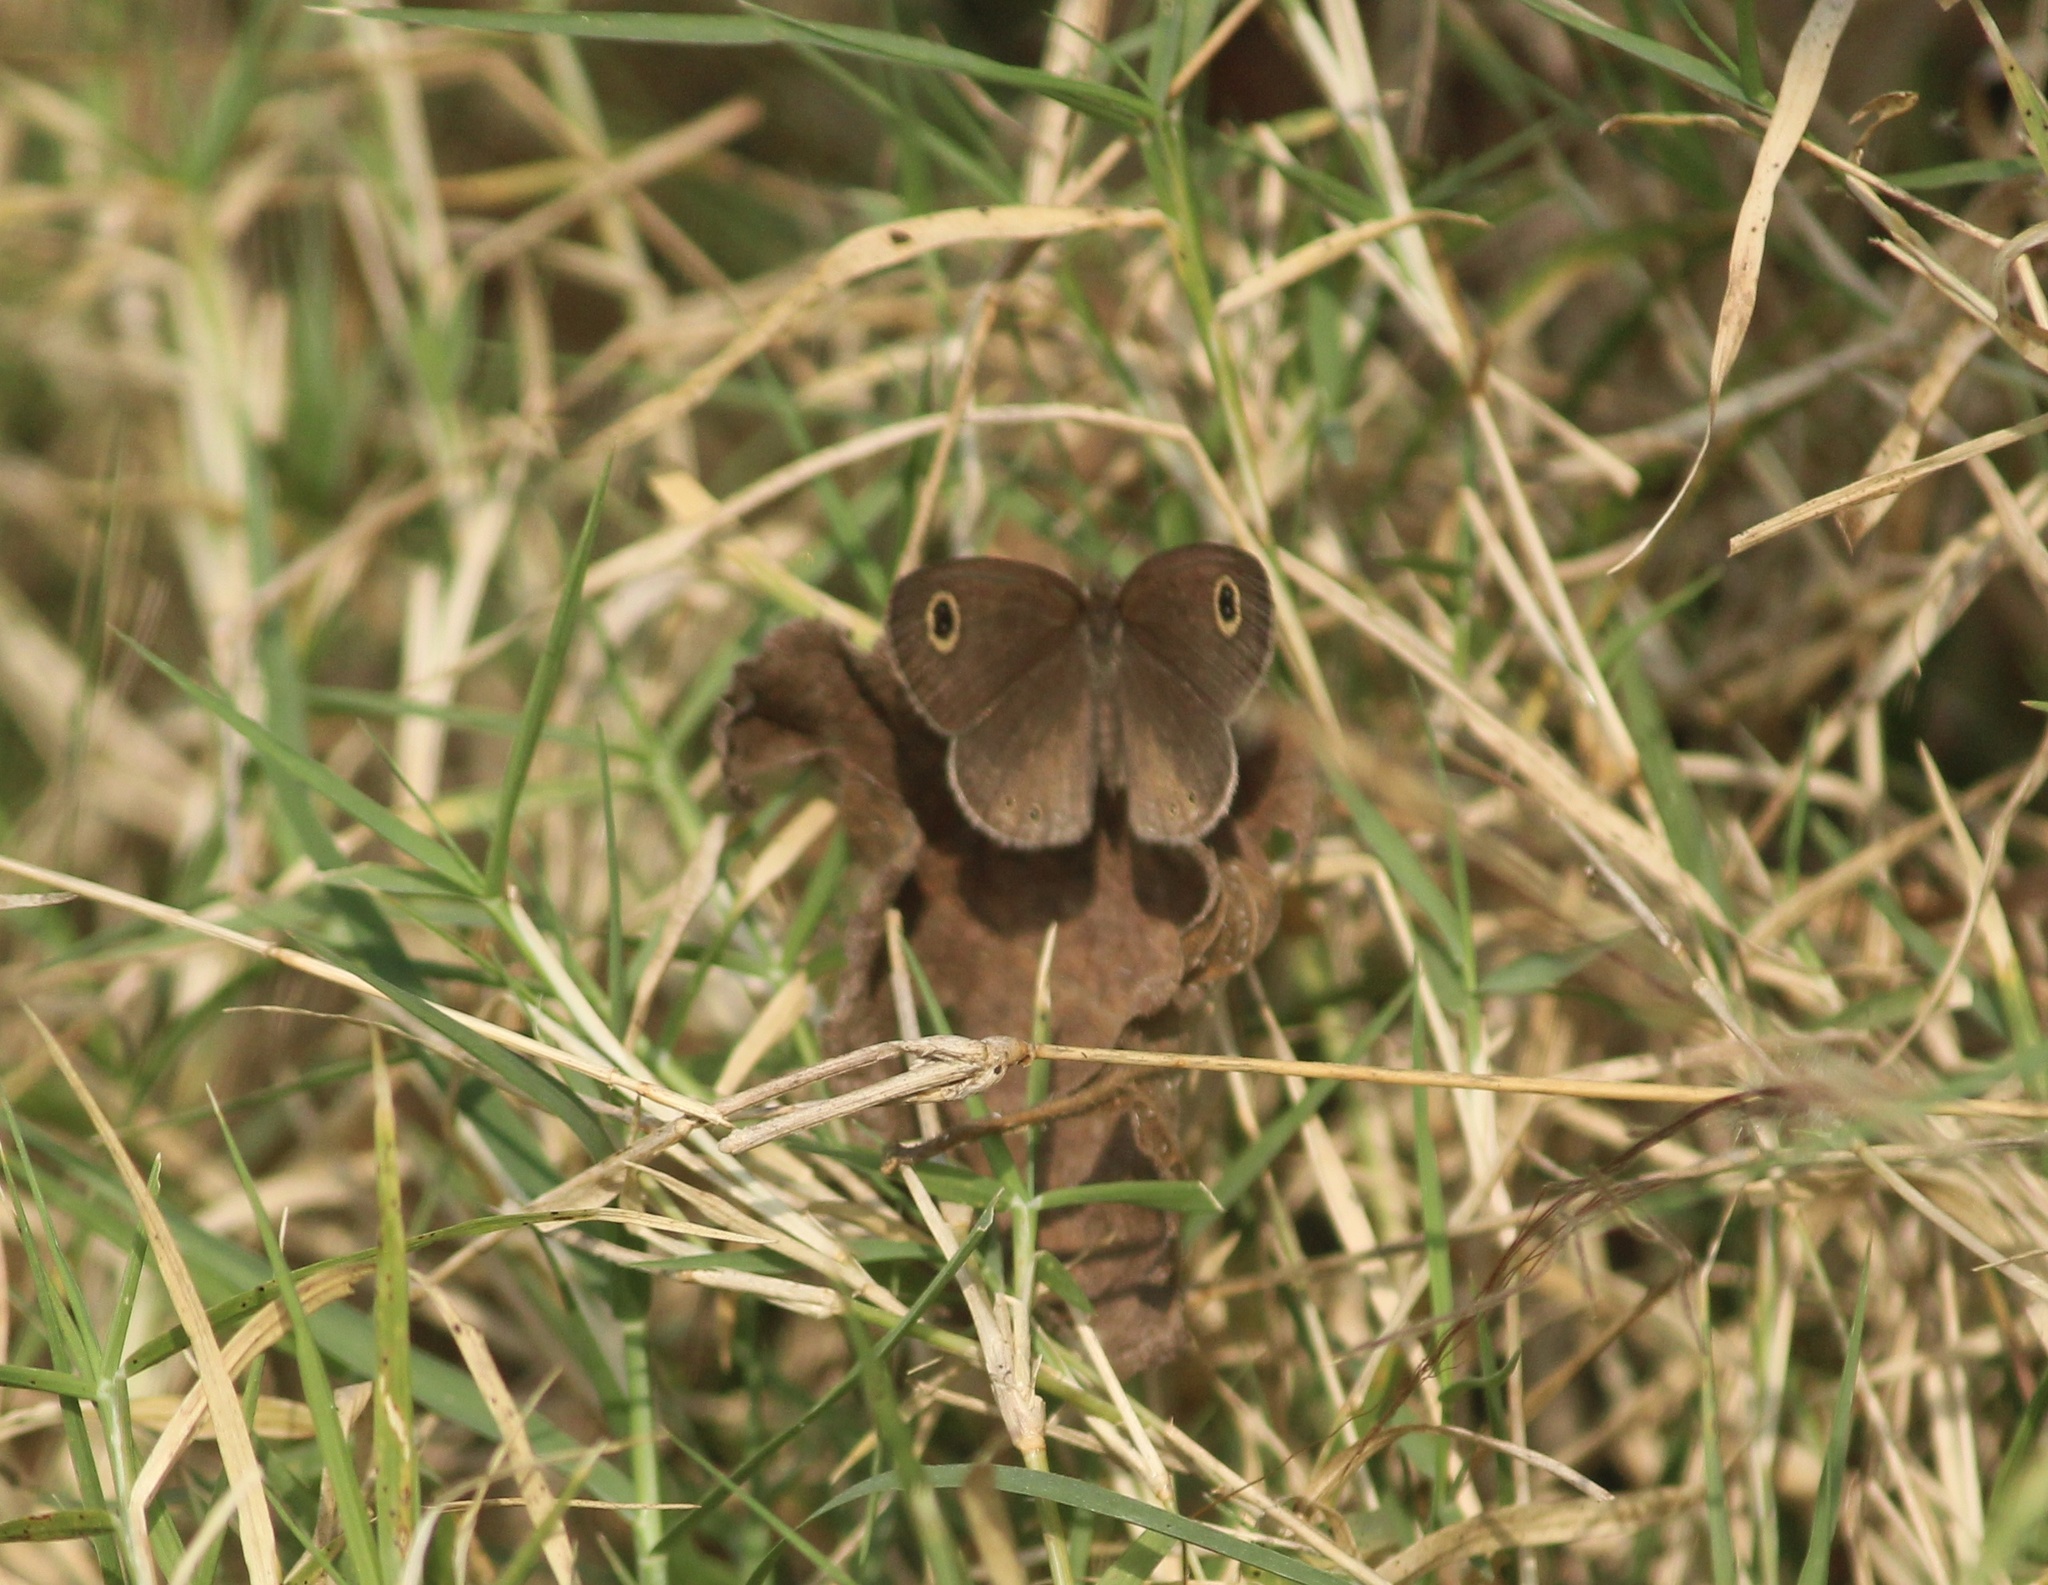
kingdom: Animalia
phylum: Arthropoda
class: Insecta
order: Lepidoptera
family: Nymphalidae
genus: Ypthima
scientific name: Ypthima huebneri
